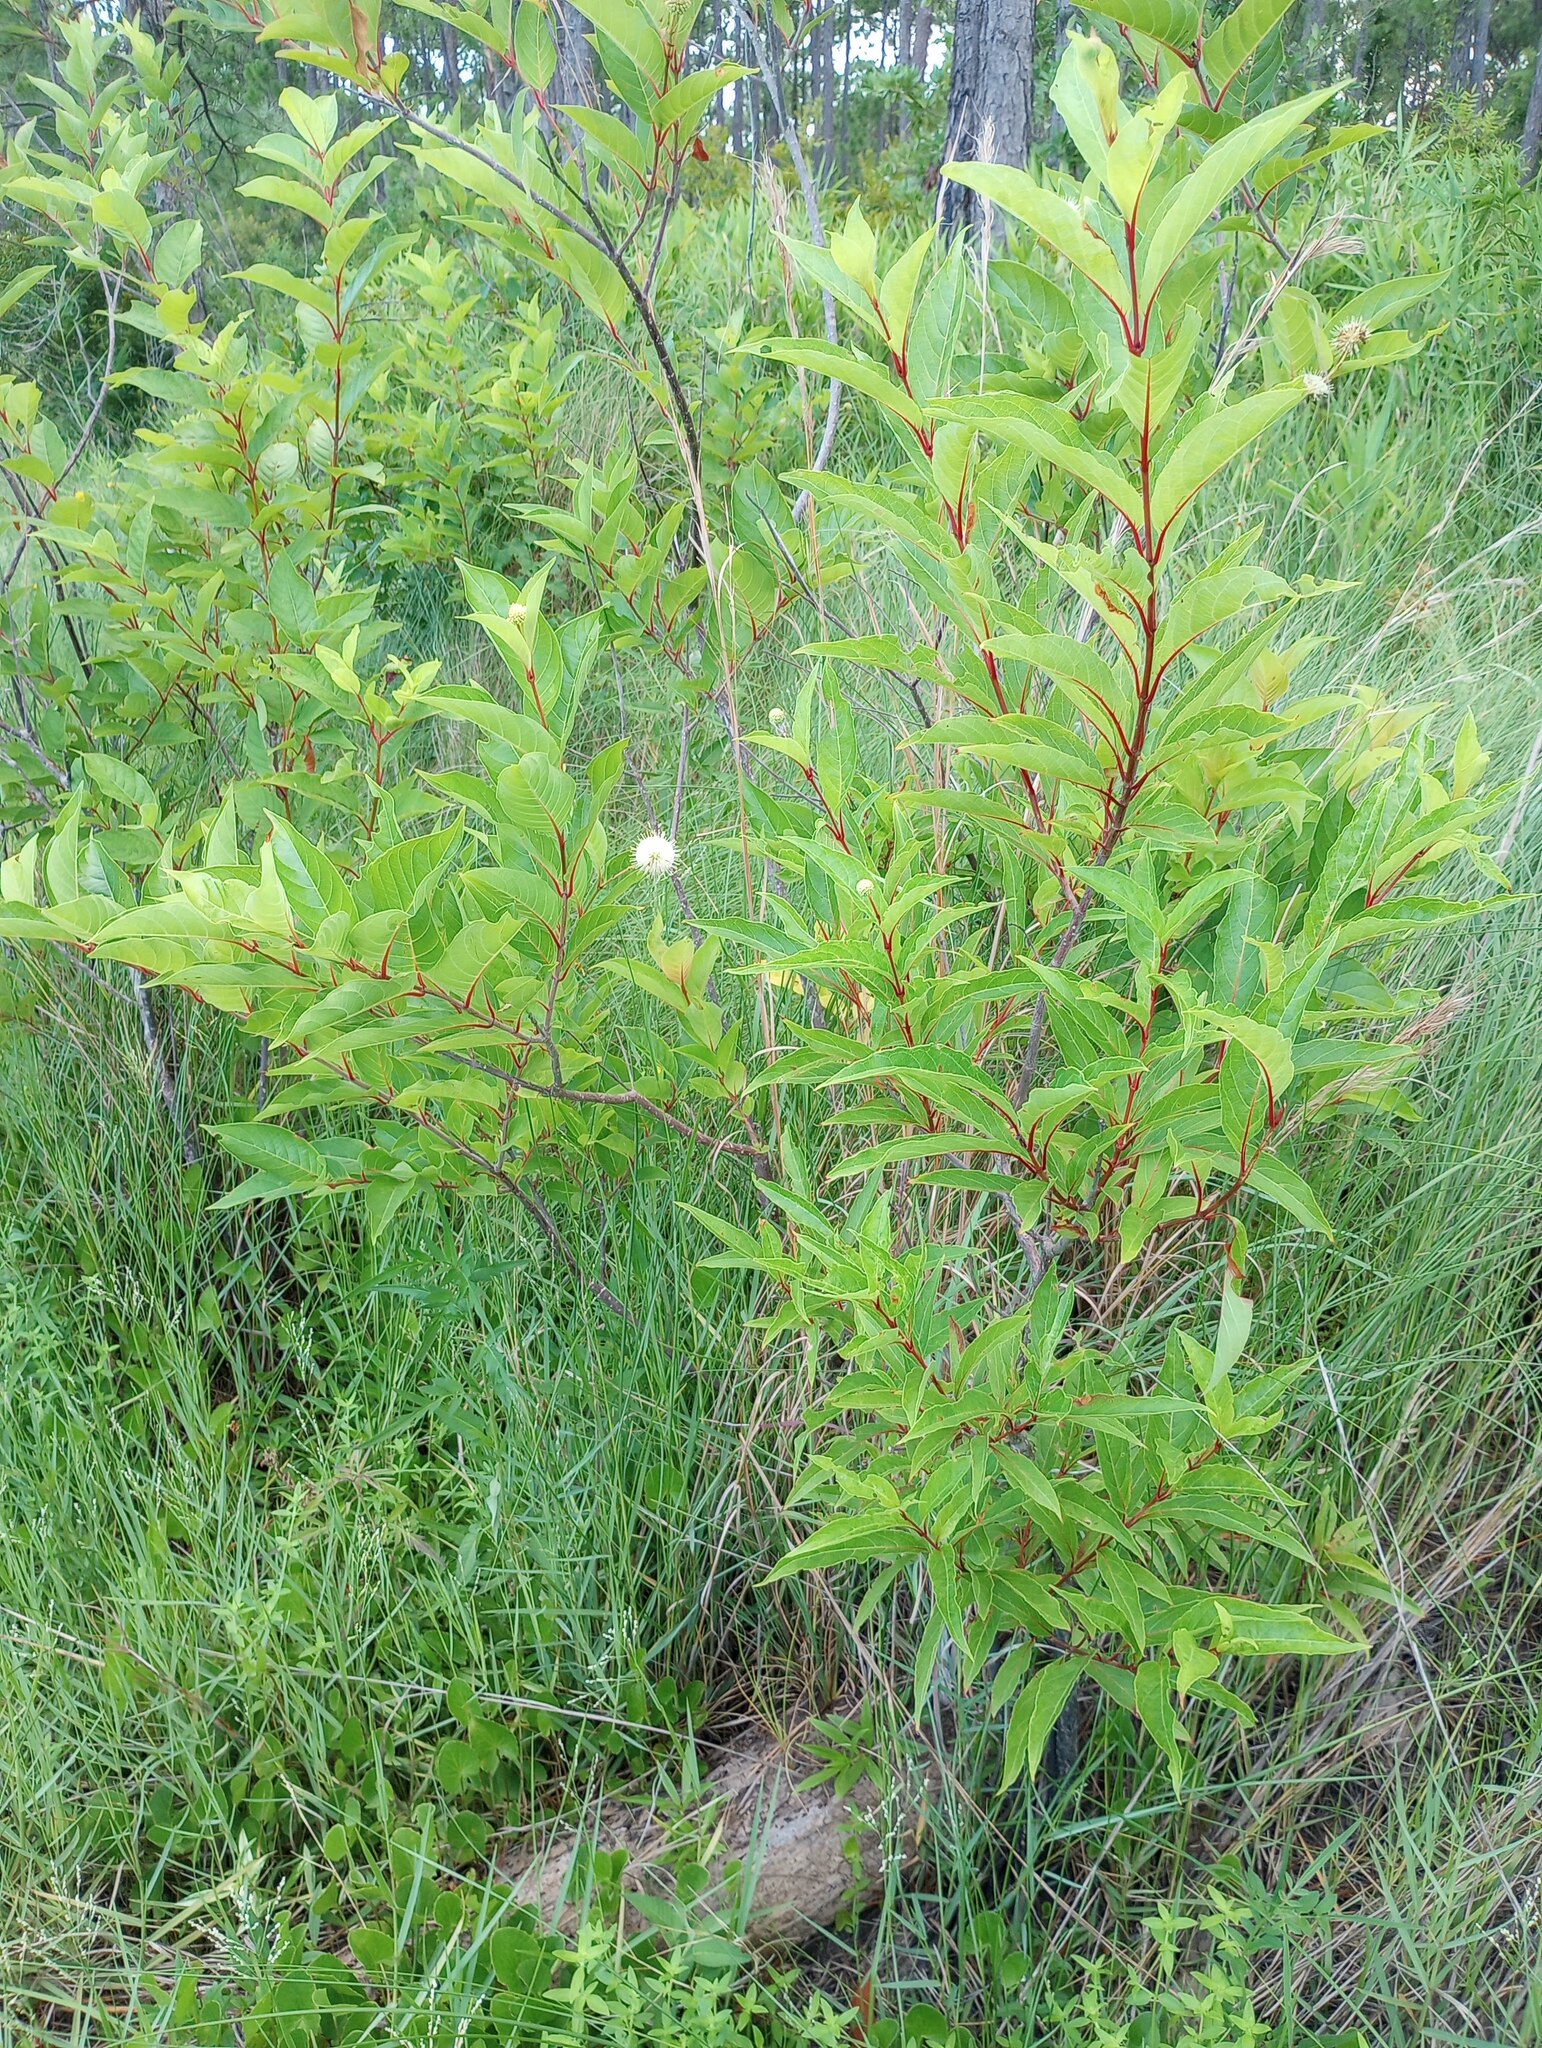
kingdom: Plantae
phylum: Tracheophyta
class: Magnoliopsida
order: Gentianales
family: Rubiaceae
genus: Cephalanthus
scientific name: Cephalanthus occidentalis
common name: Button-willow
